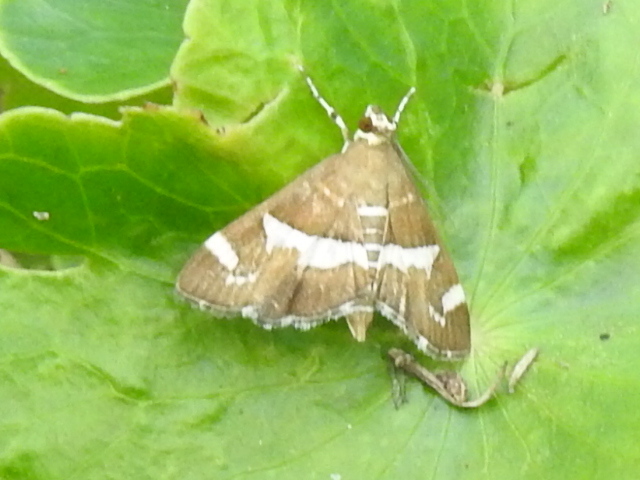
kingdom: Animalia
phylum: Arthropoda
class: Insecta
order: Lepidoptera
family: Crambidae
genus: Spoladea
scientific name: Spoladea recurvalis
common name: Beet webworm moth
